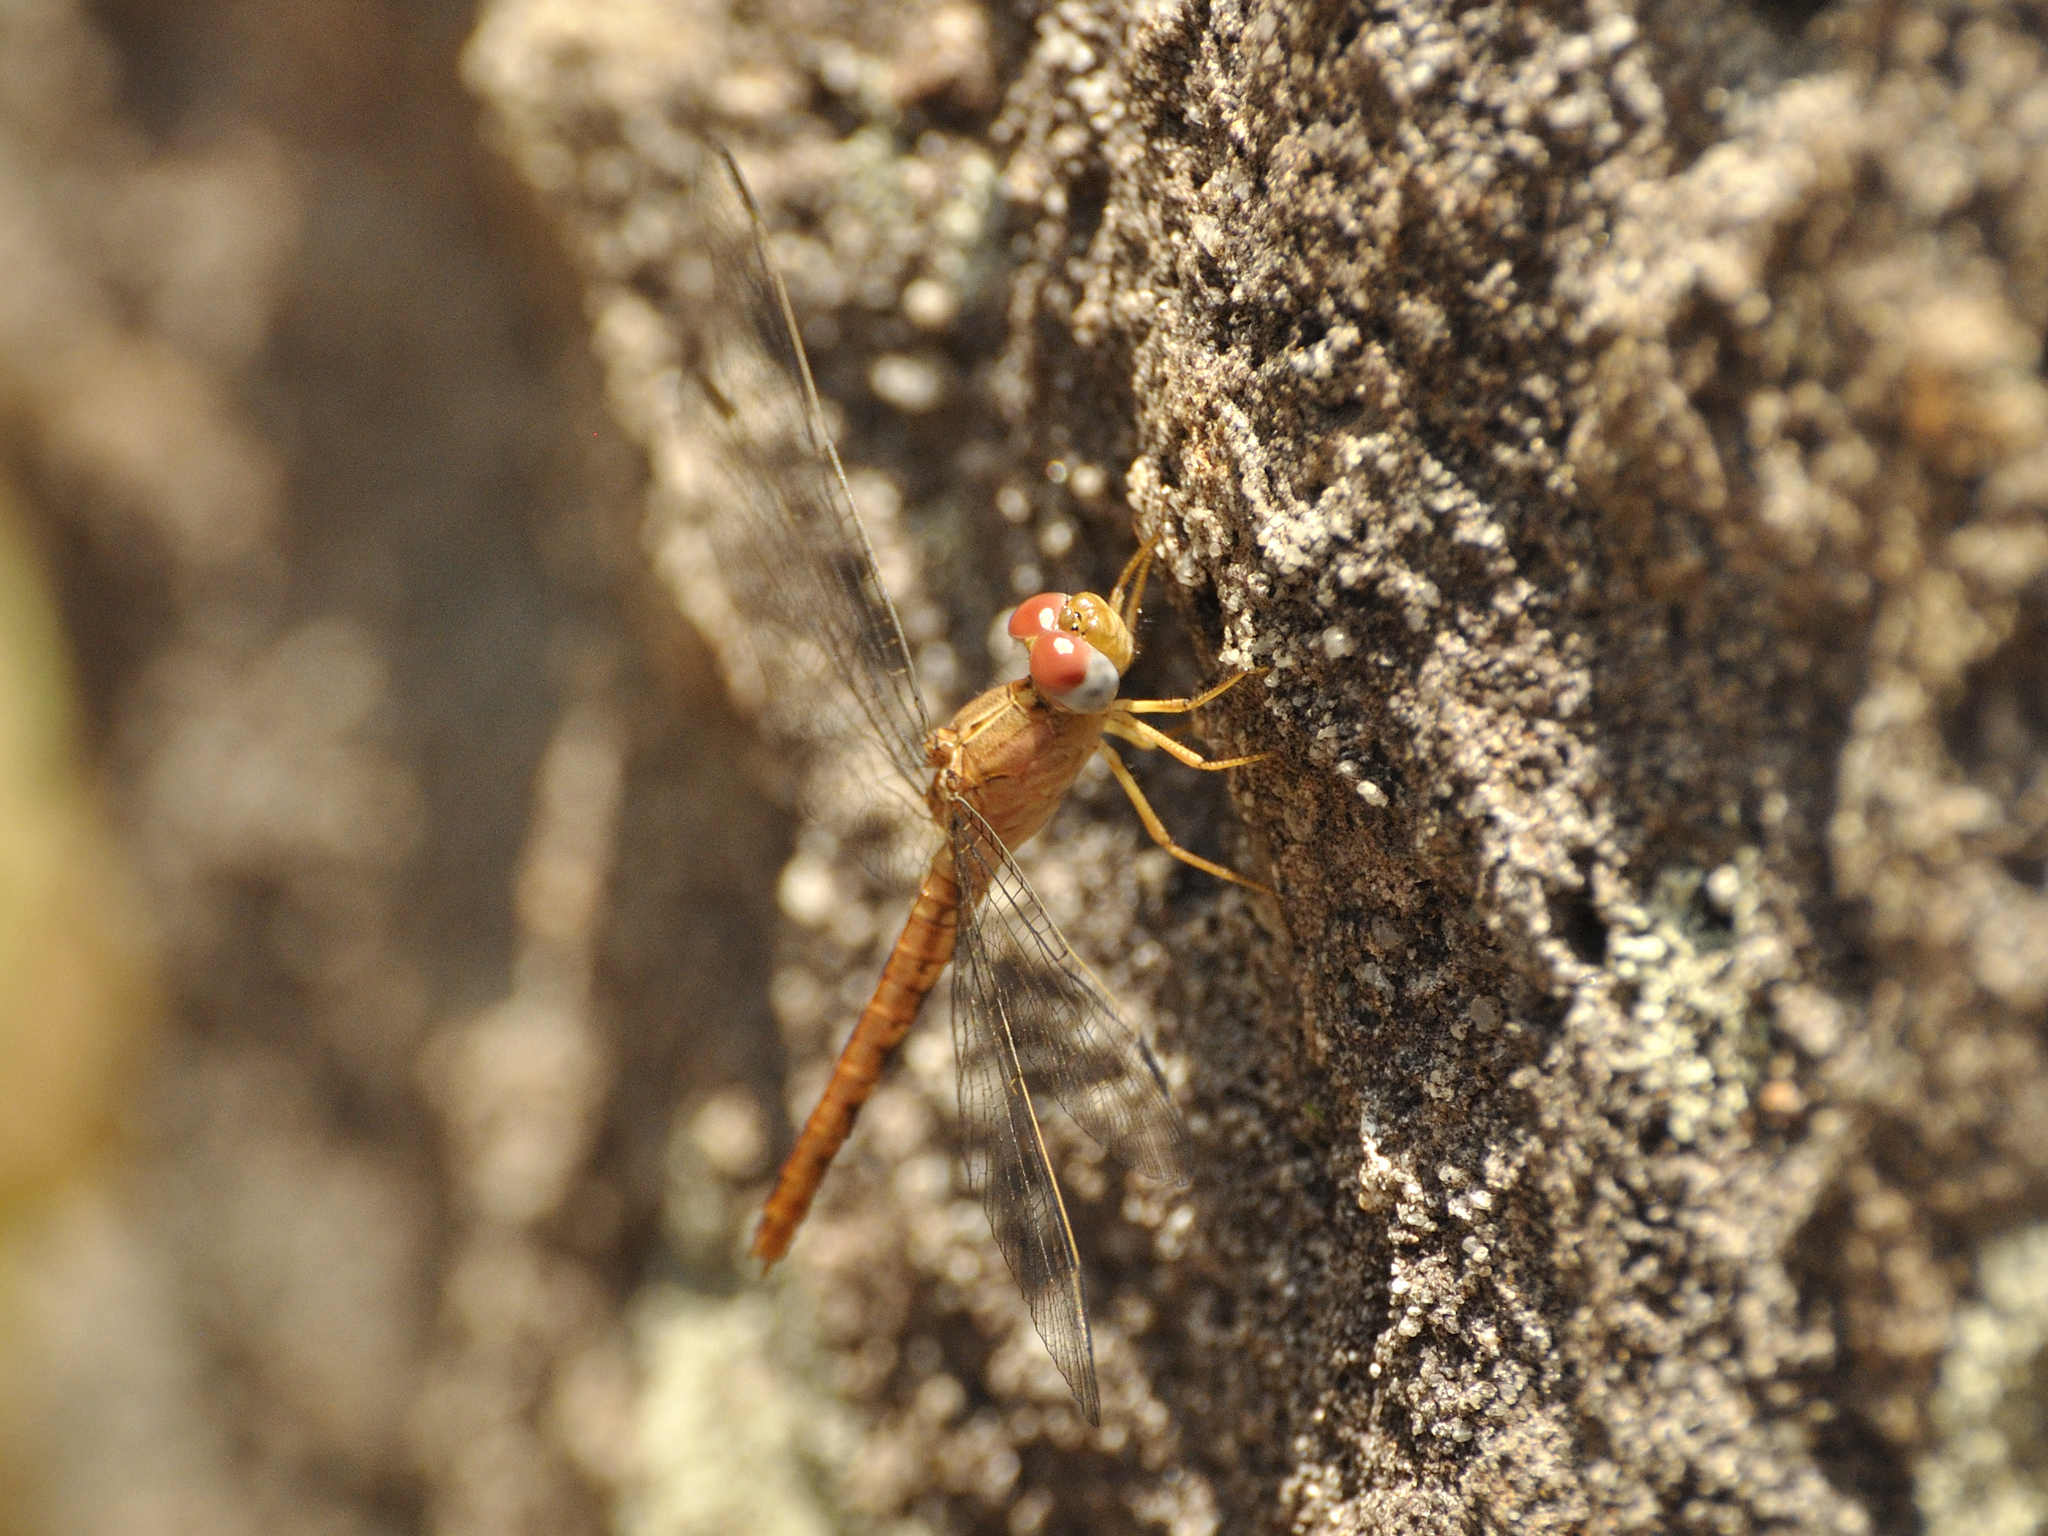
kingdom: Animalia
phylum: Arthropoda
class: Insecta
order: Odonata
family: Libellulidae
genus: Crocothemis
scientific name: Crocothemis divisa
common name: Divisa scarlet
